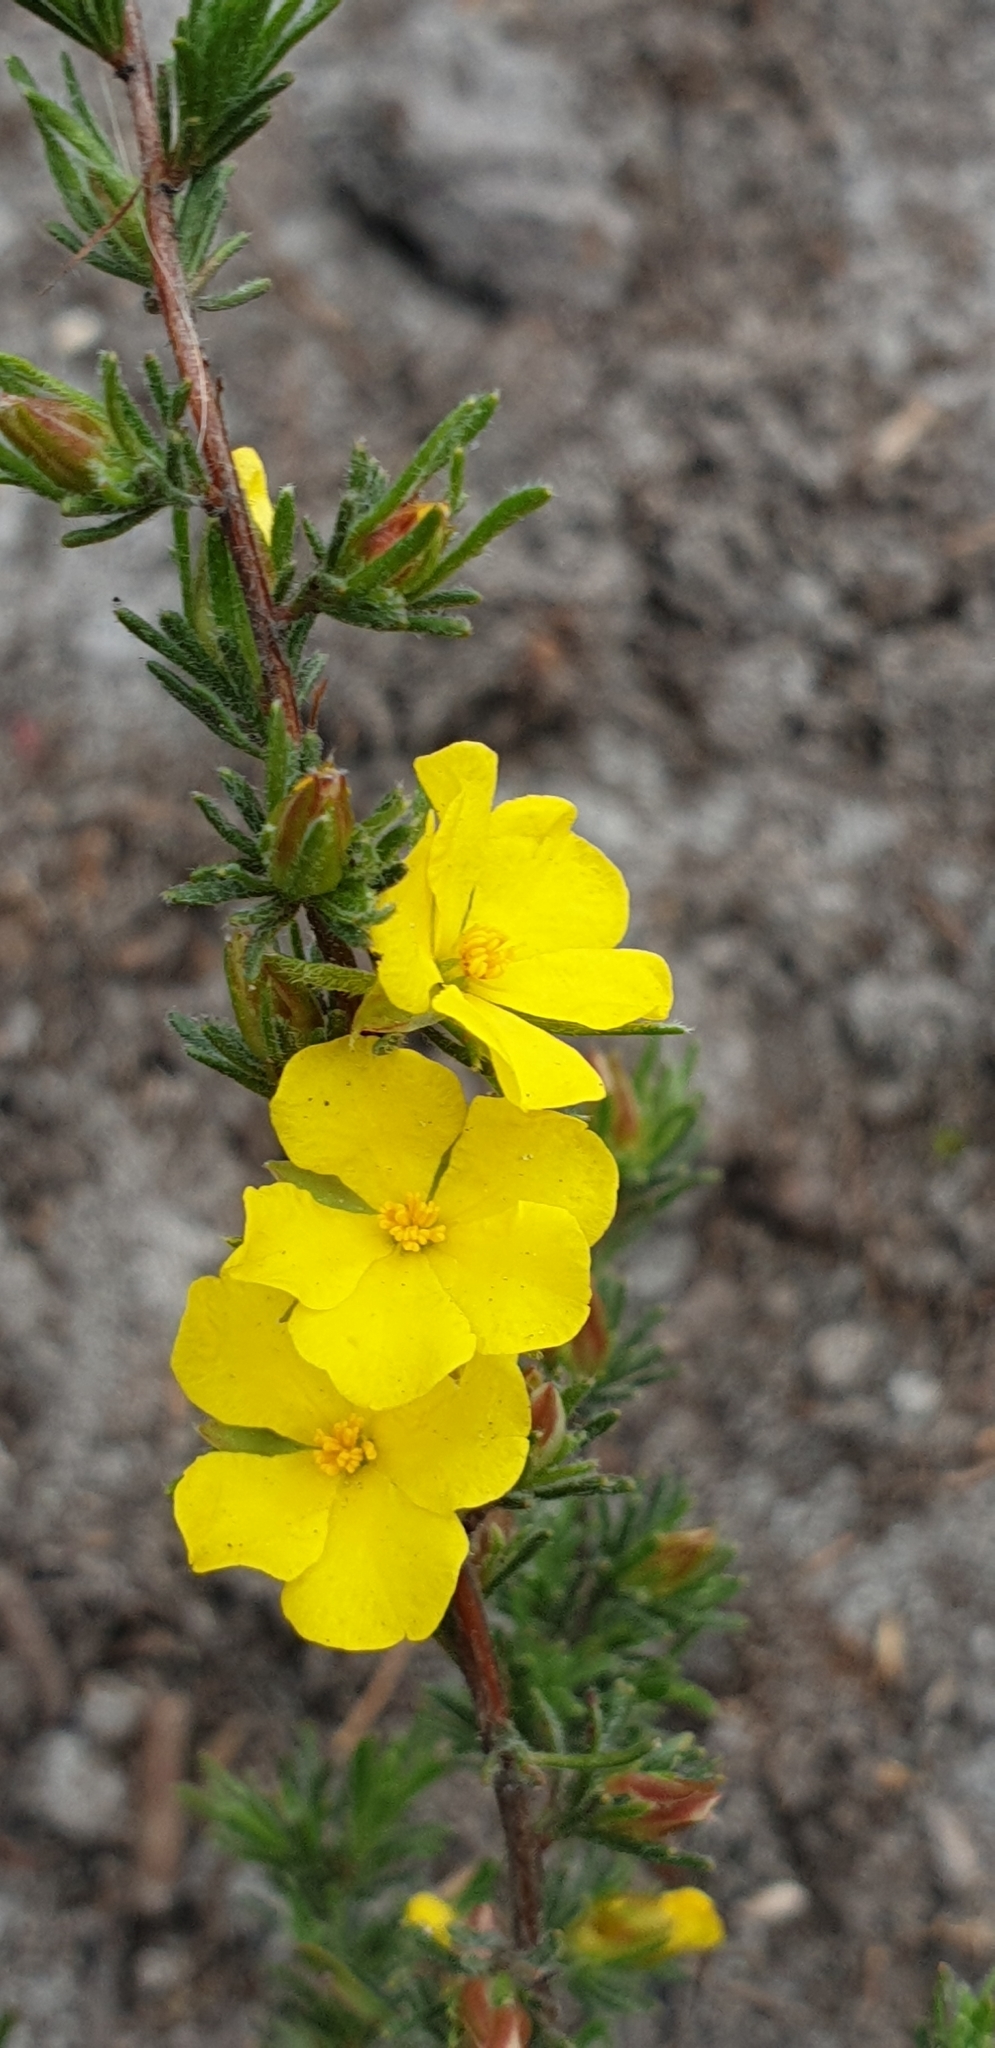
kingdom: Plantae
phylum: Tracheophyta
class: Magnoliopsida
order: Dilleniales
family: Dilleniaceae
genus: Hibbertia
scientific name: Hibbertia fasciculata
